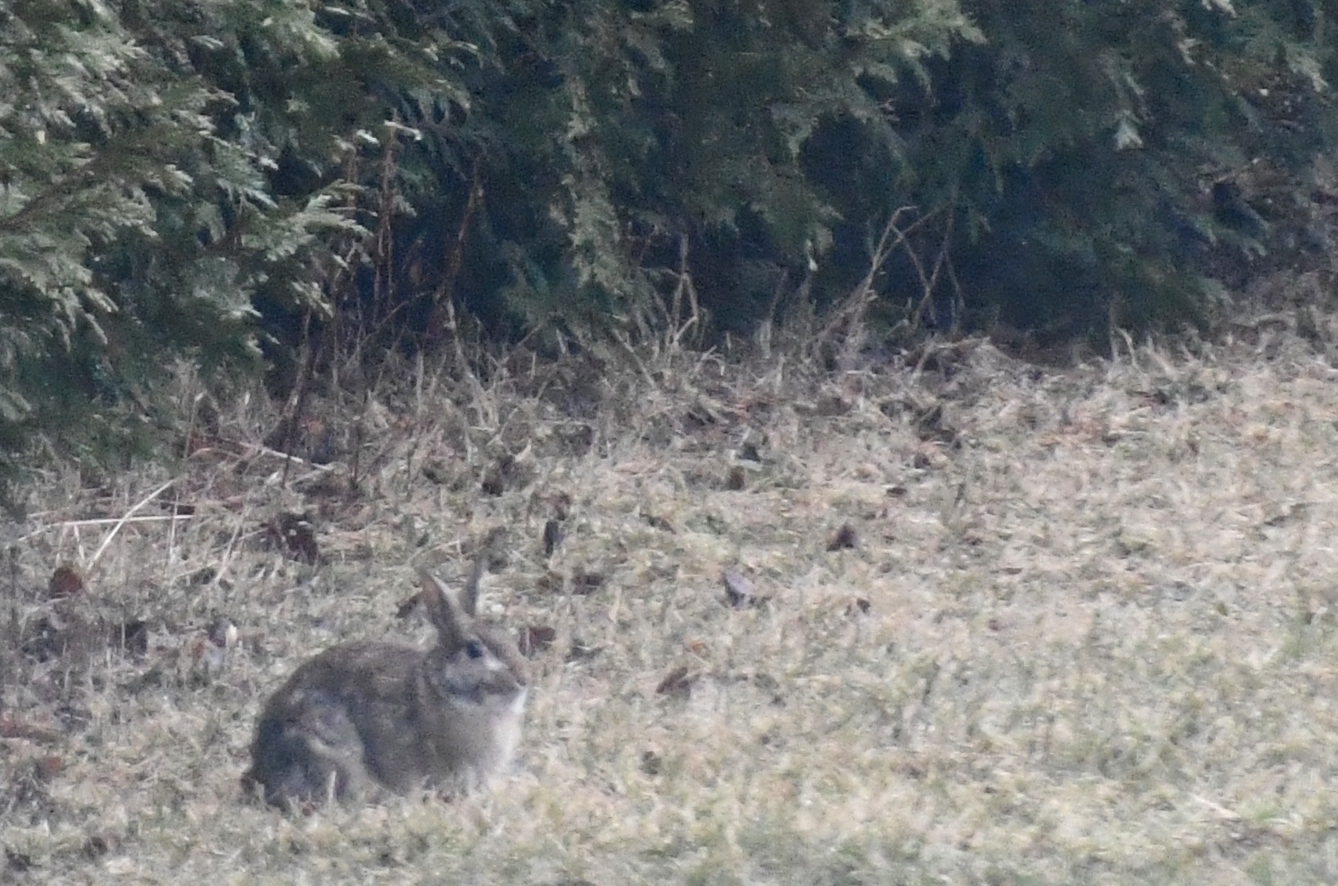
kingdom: Animalia
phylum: Chordata
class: Mammalia
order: Lagomorpha
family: Leporidae
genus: Sylvilagus
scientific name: Sylvilagus floridanus
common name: Eastern cottontail
